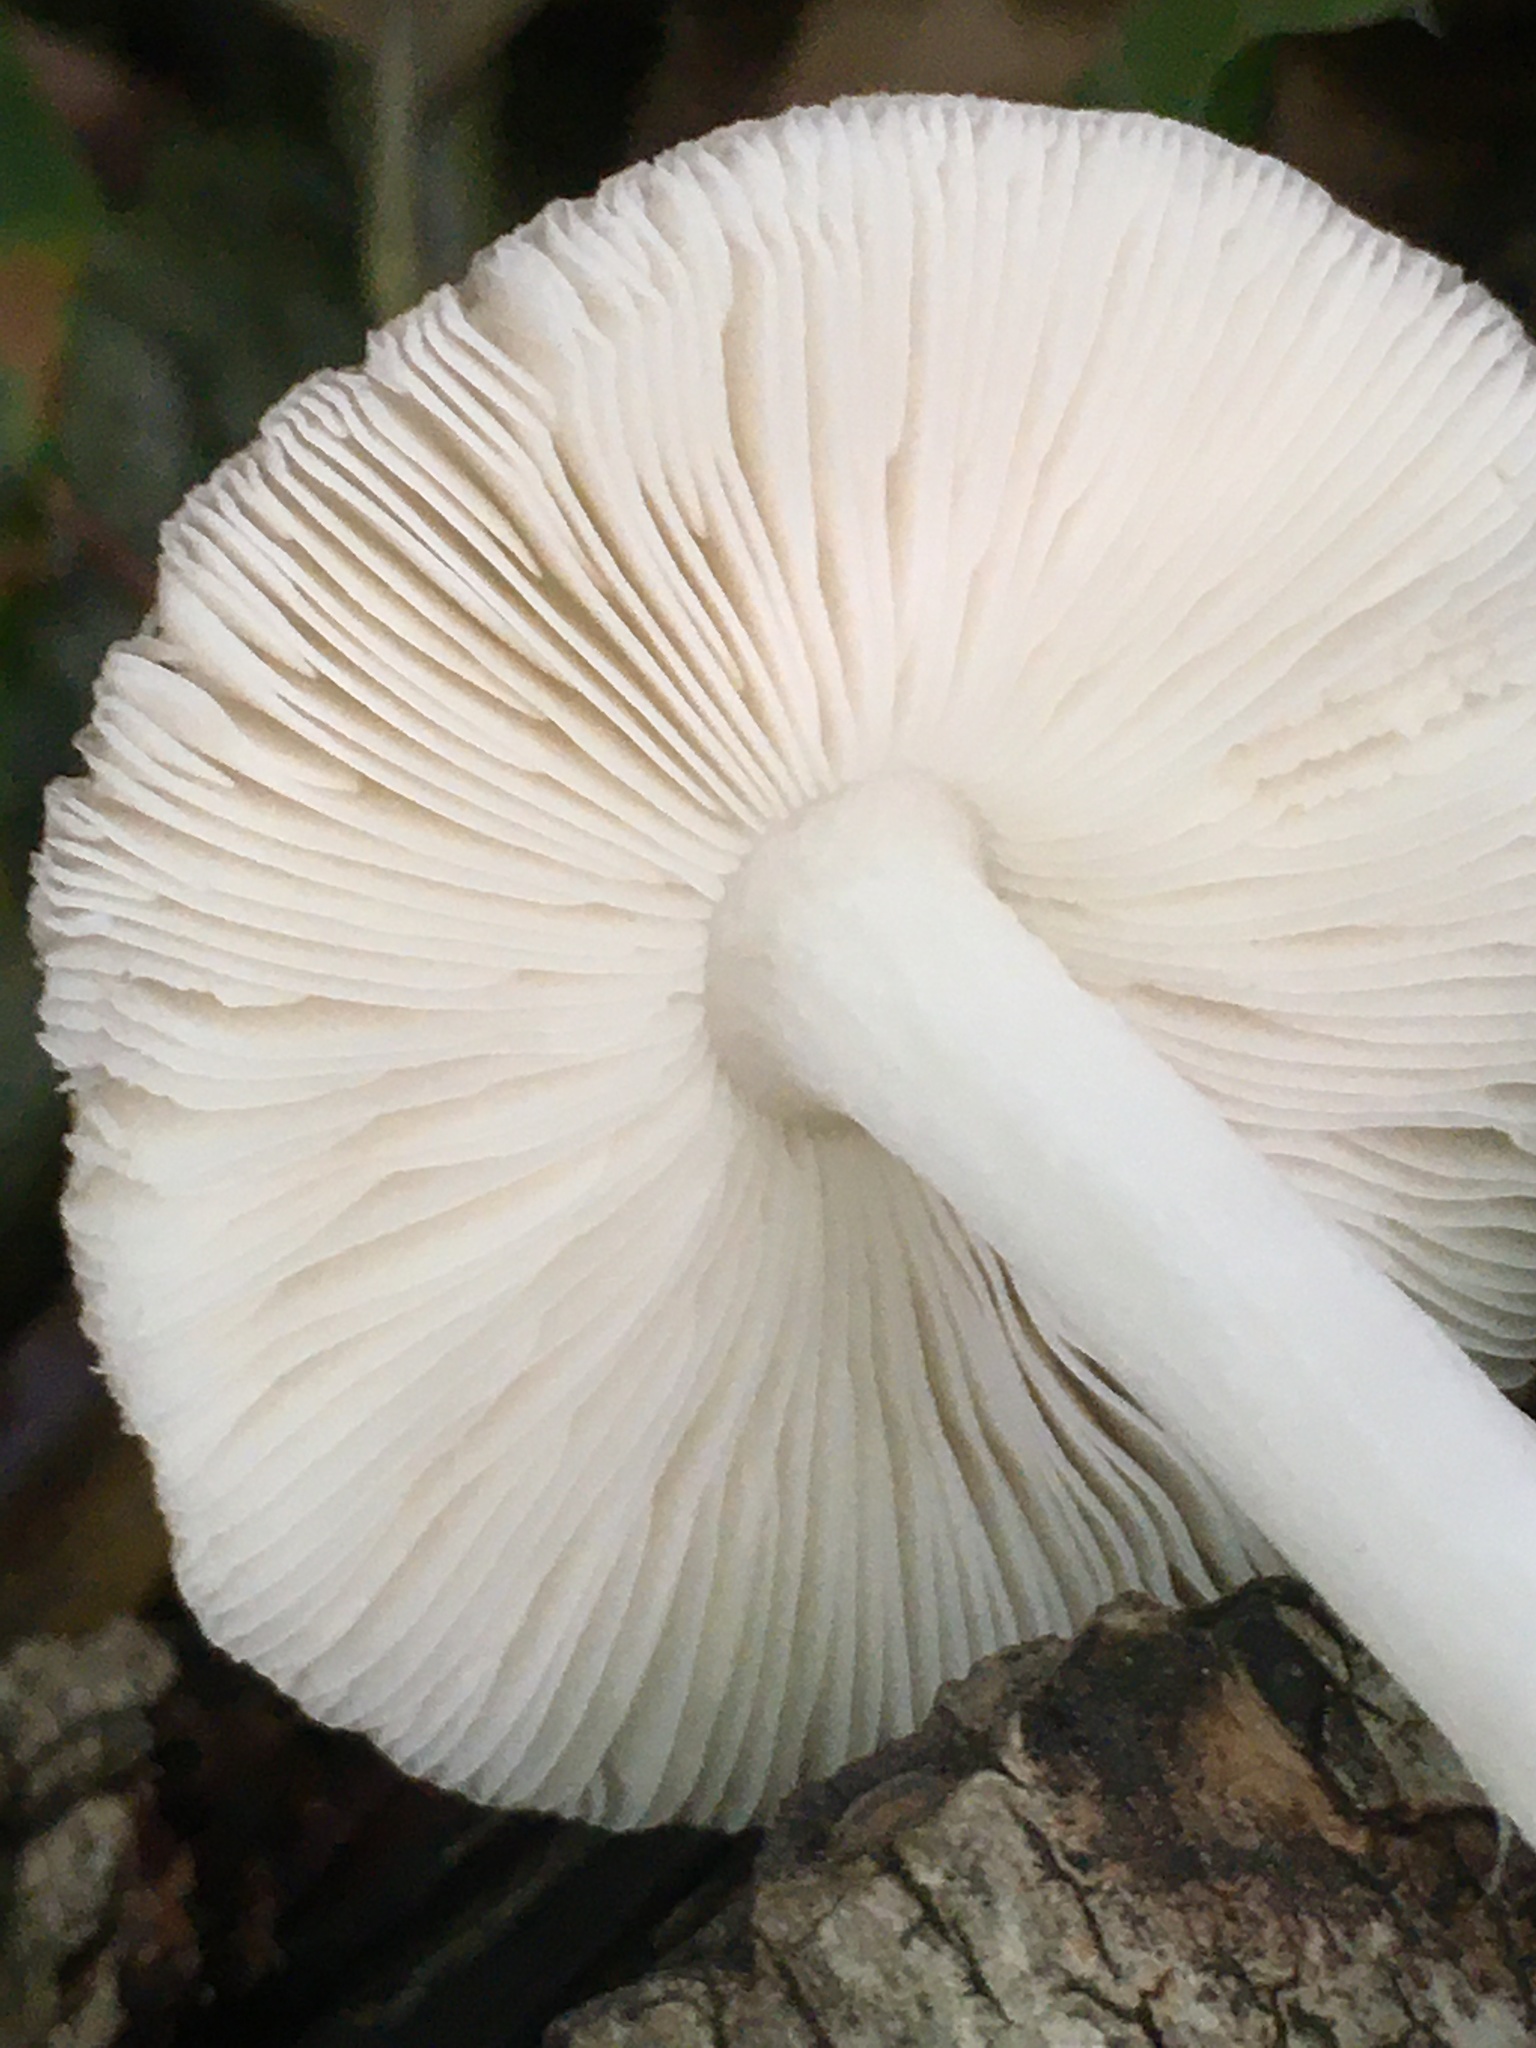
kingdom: Fungi
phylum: Basidiomycota
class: Agaricomycetes
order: Agaricales
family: Pluteaceae
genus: Pluteus
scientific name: Pluteus cervinus
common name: Deer shield
